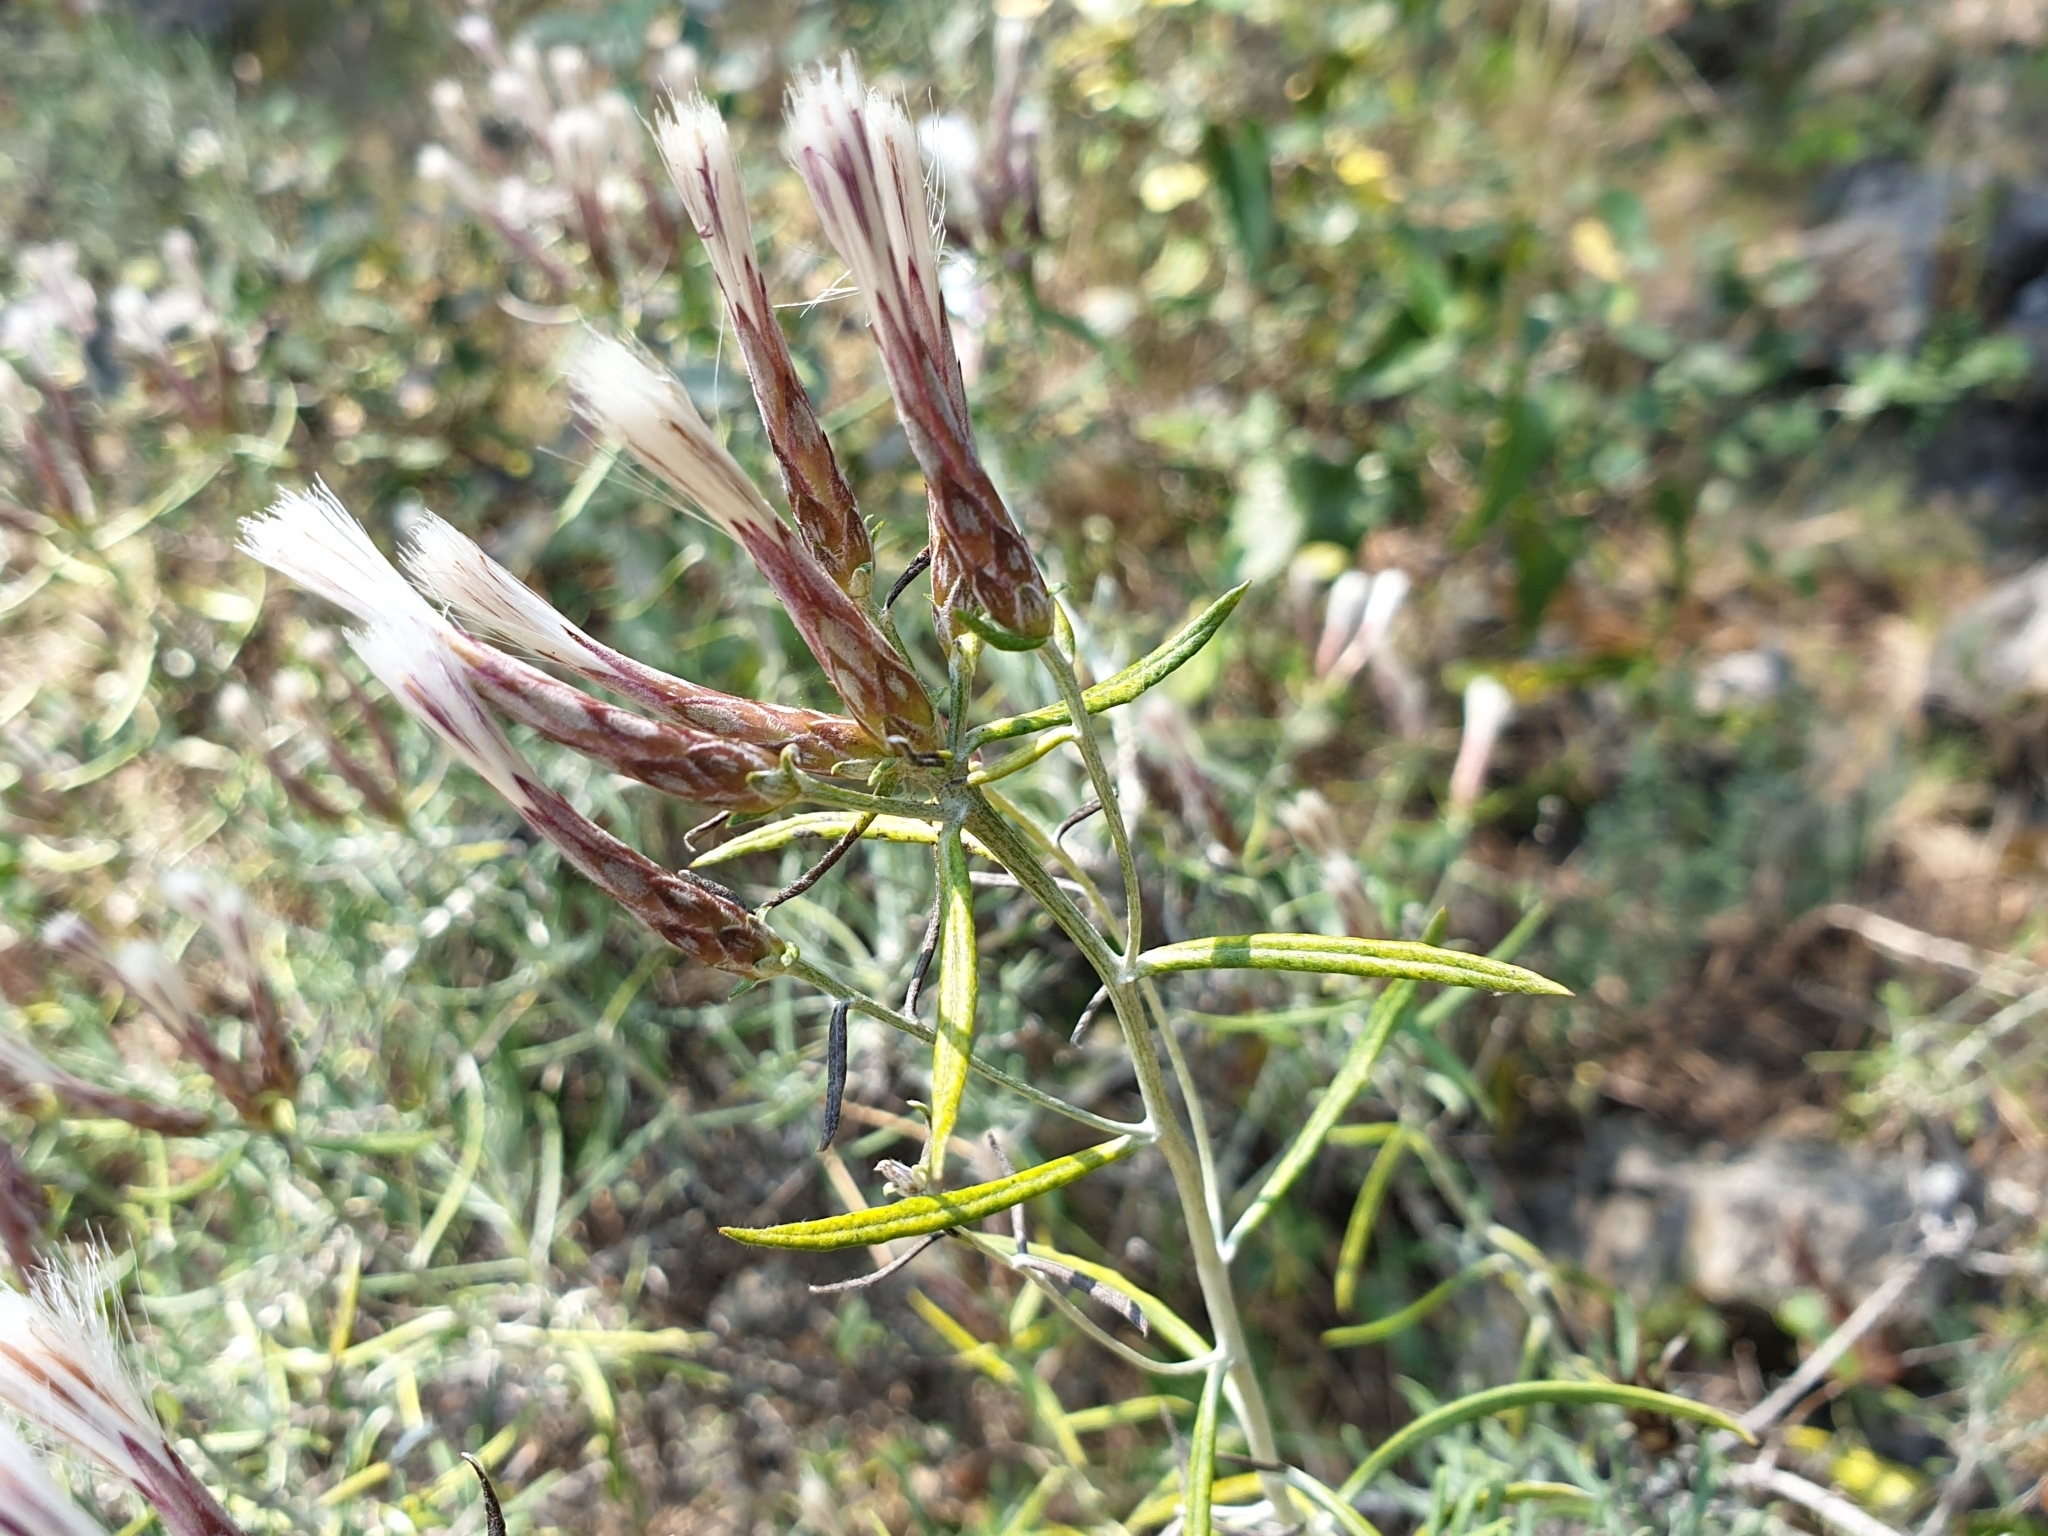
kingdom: Plantae
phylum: Tracheophyta
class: Magnoliopsida
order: Asterales
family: Asteraceae
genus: Staehelina
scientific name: Staehelina dubia
